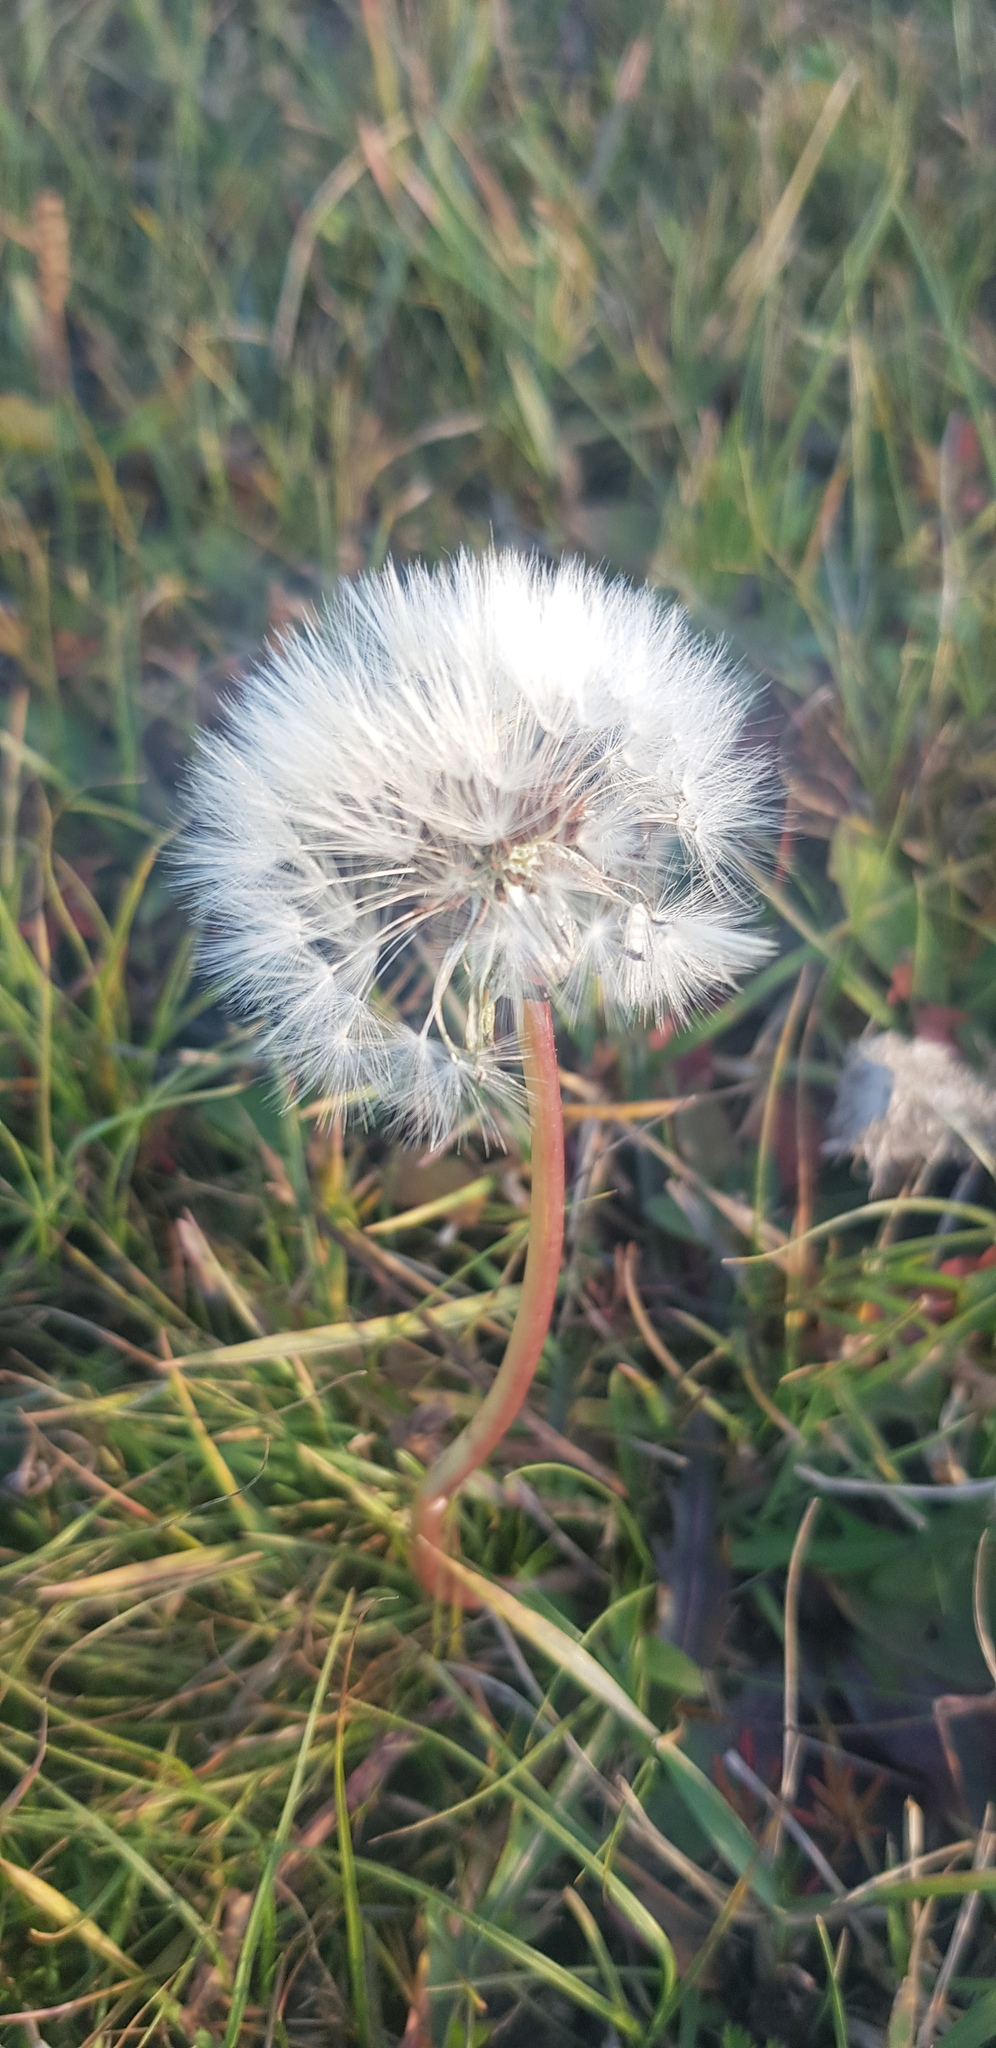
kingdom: Plantae
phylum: Tracheophyta
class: Magnoliopsida
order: Asterales
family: Asteraceae
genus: Taraxacum
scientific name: Taraxacum officinale
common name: Common dandelion
